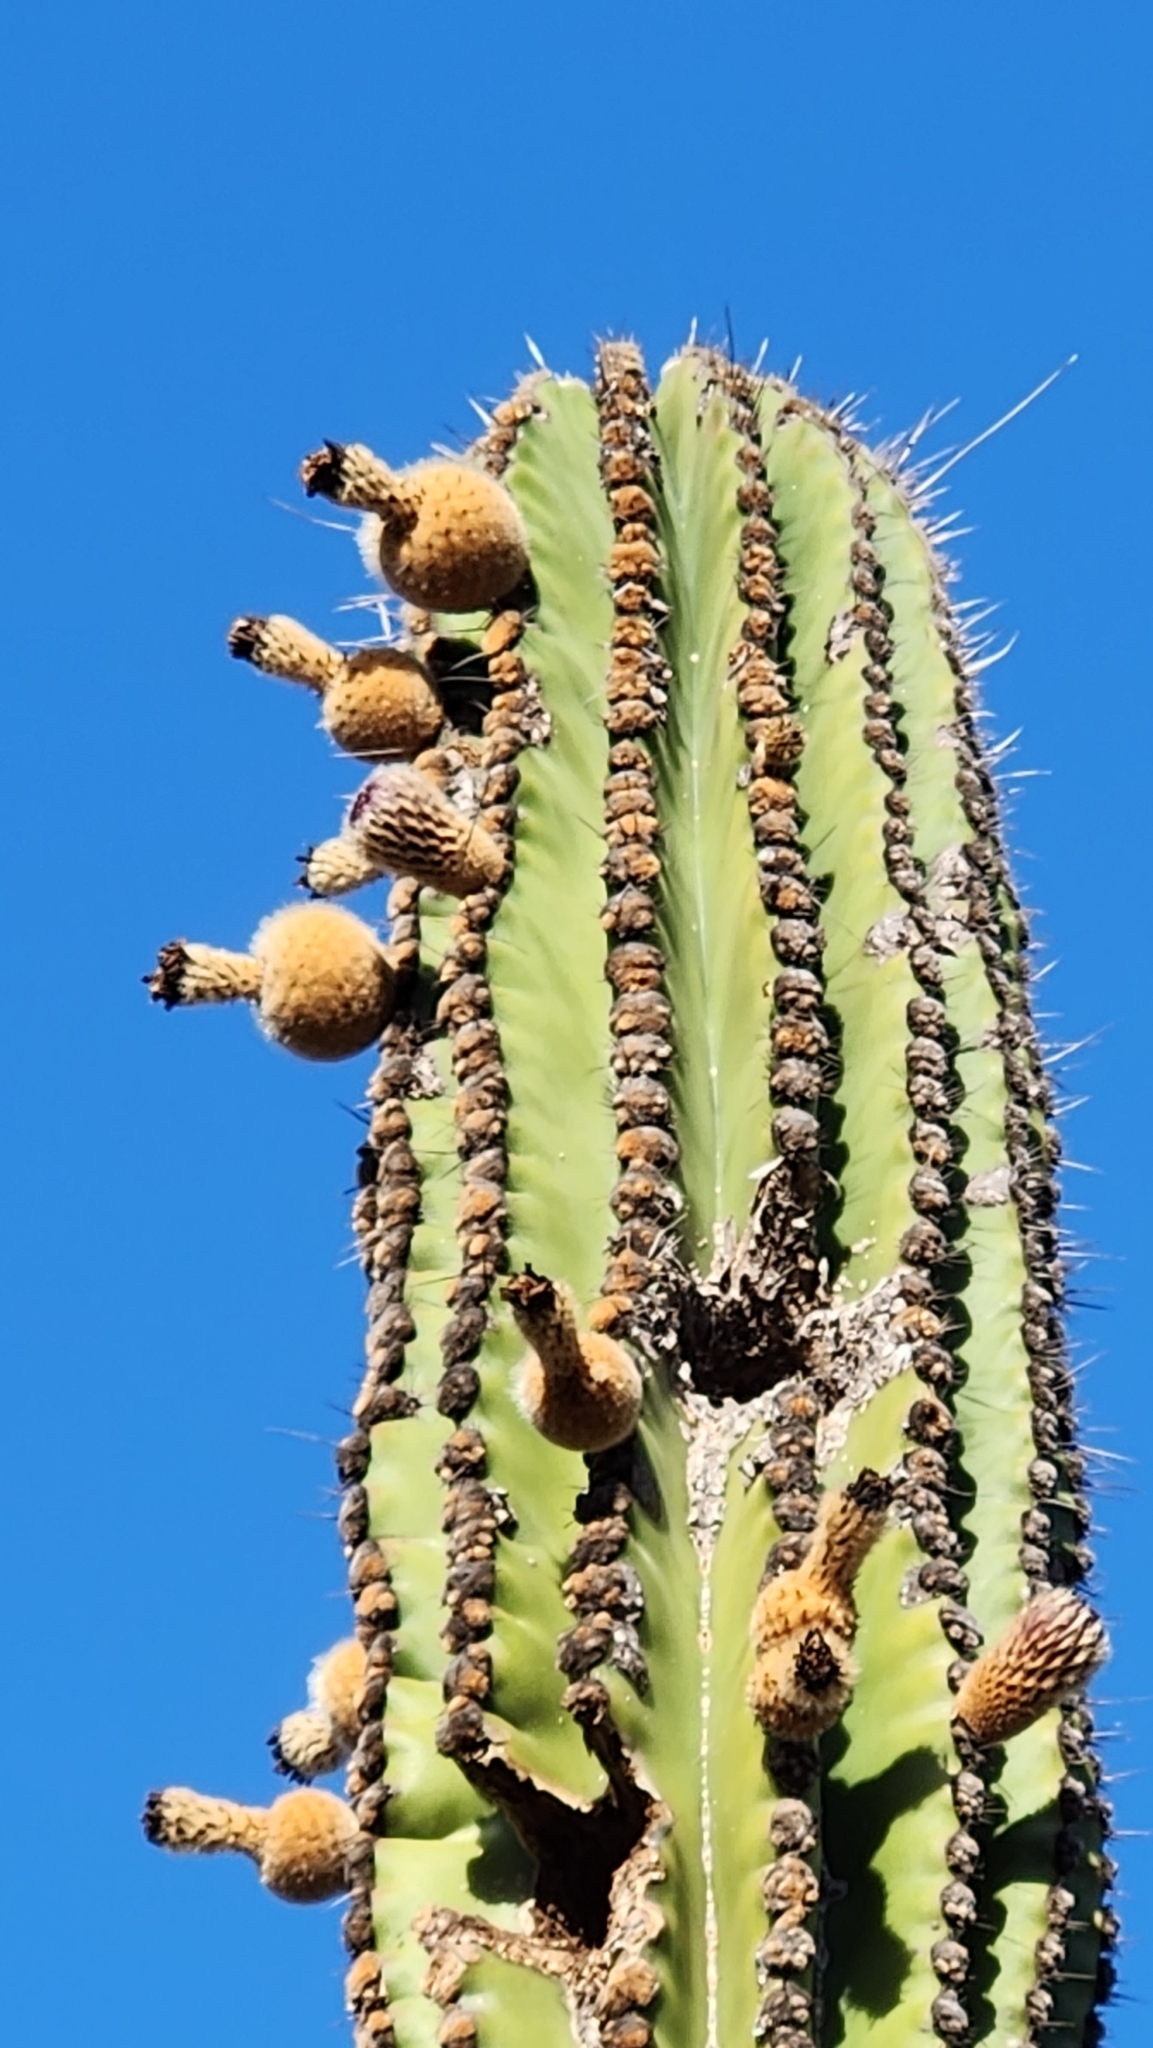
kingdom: Plantae
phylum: Tracheophyta
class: Magnoliopsida
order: Caryophyllales
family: Cactaceae
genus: Pachycereus
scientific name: Pachycereus pringlei
